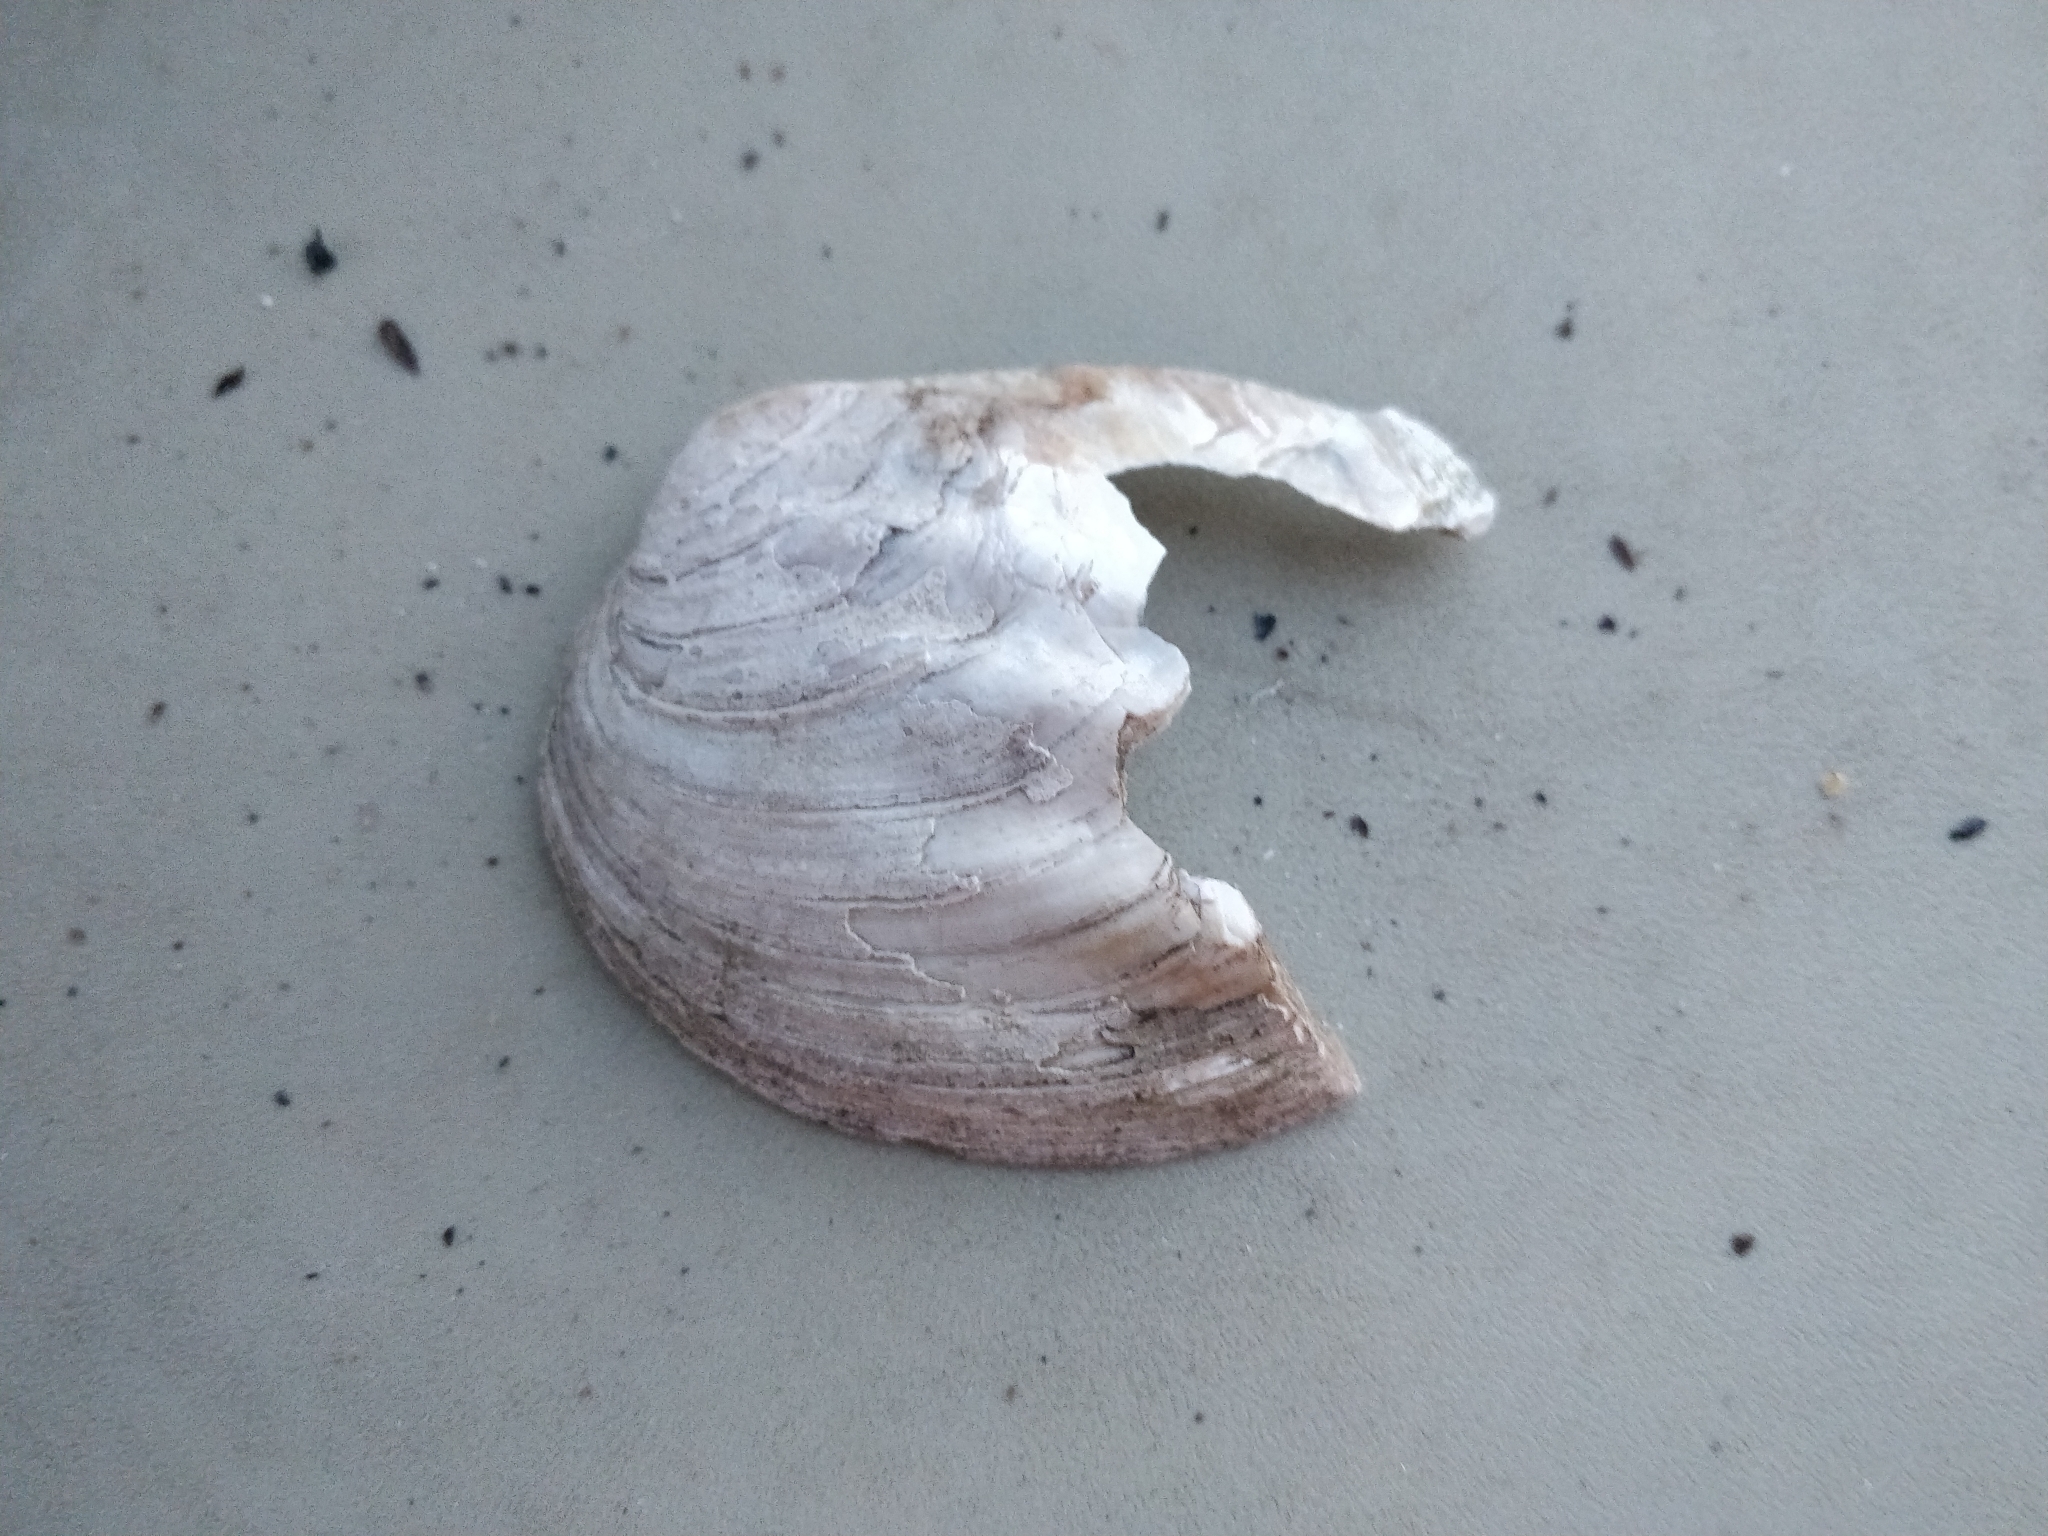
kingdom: Animalia
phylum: Mollusca
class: Bivalvia
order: Unionida
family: Unionidae
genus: Amblema
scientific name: Amblema plicata
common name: Threeridge
